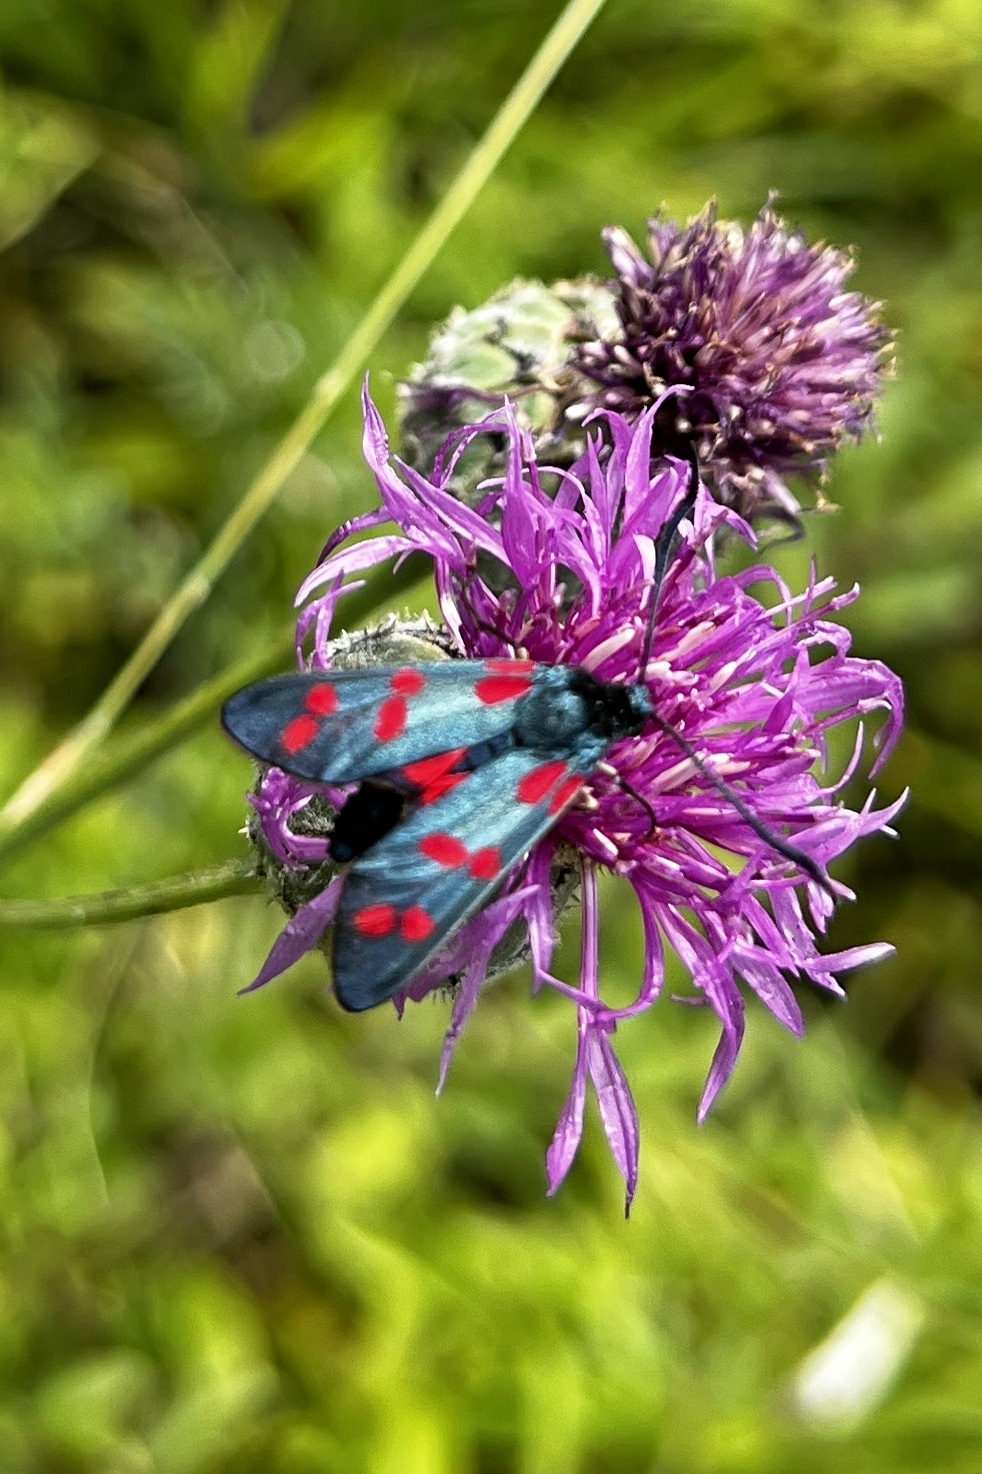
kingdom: Animalia
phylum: Arthropoda
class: Insecta
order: Lepidoptera
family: Zygaenidae
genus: Zygaena
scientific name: Zygaena filipendulae
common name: Six-spot burnet
